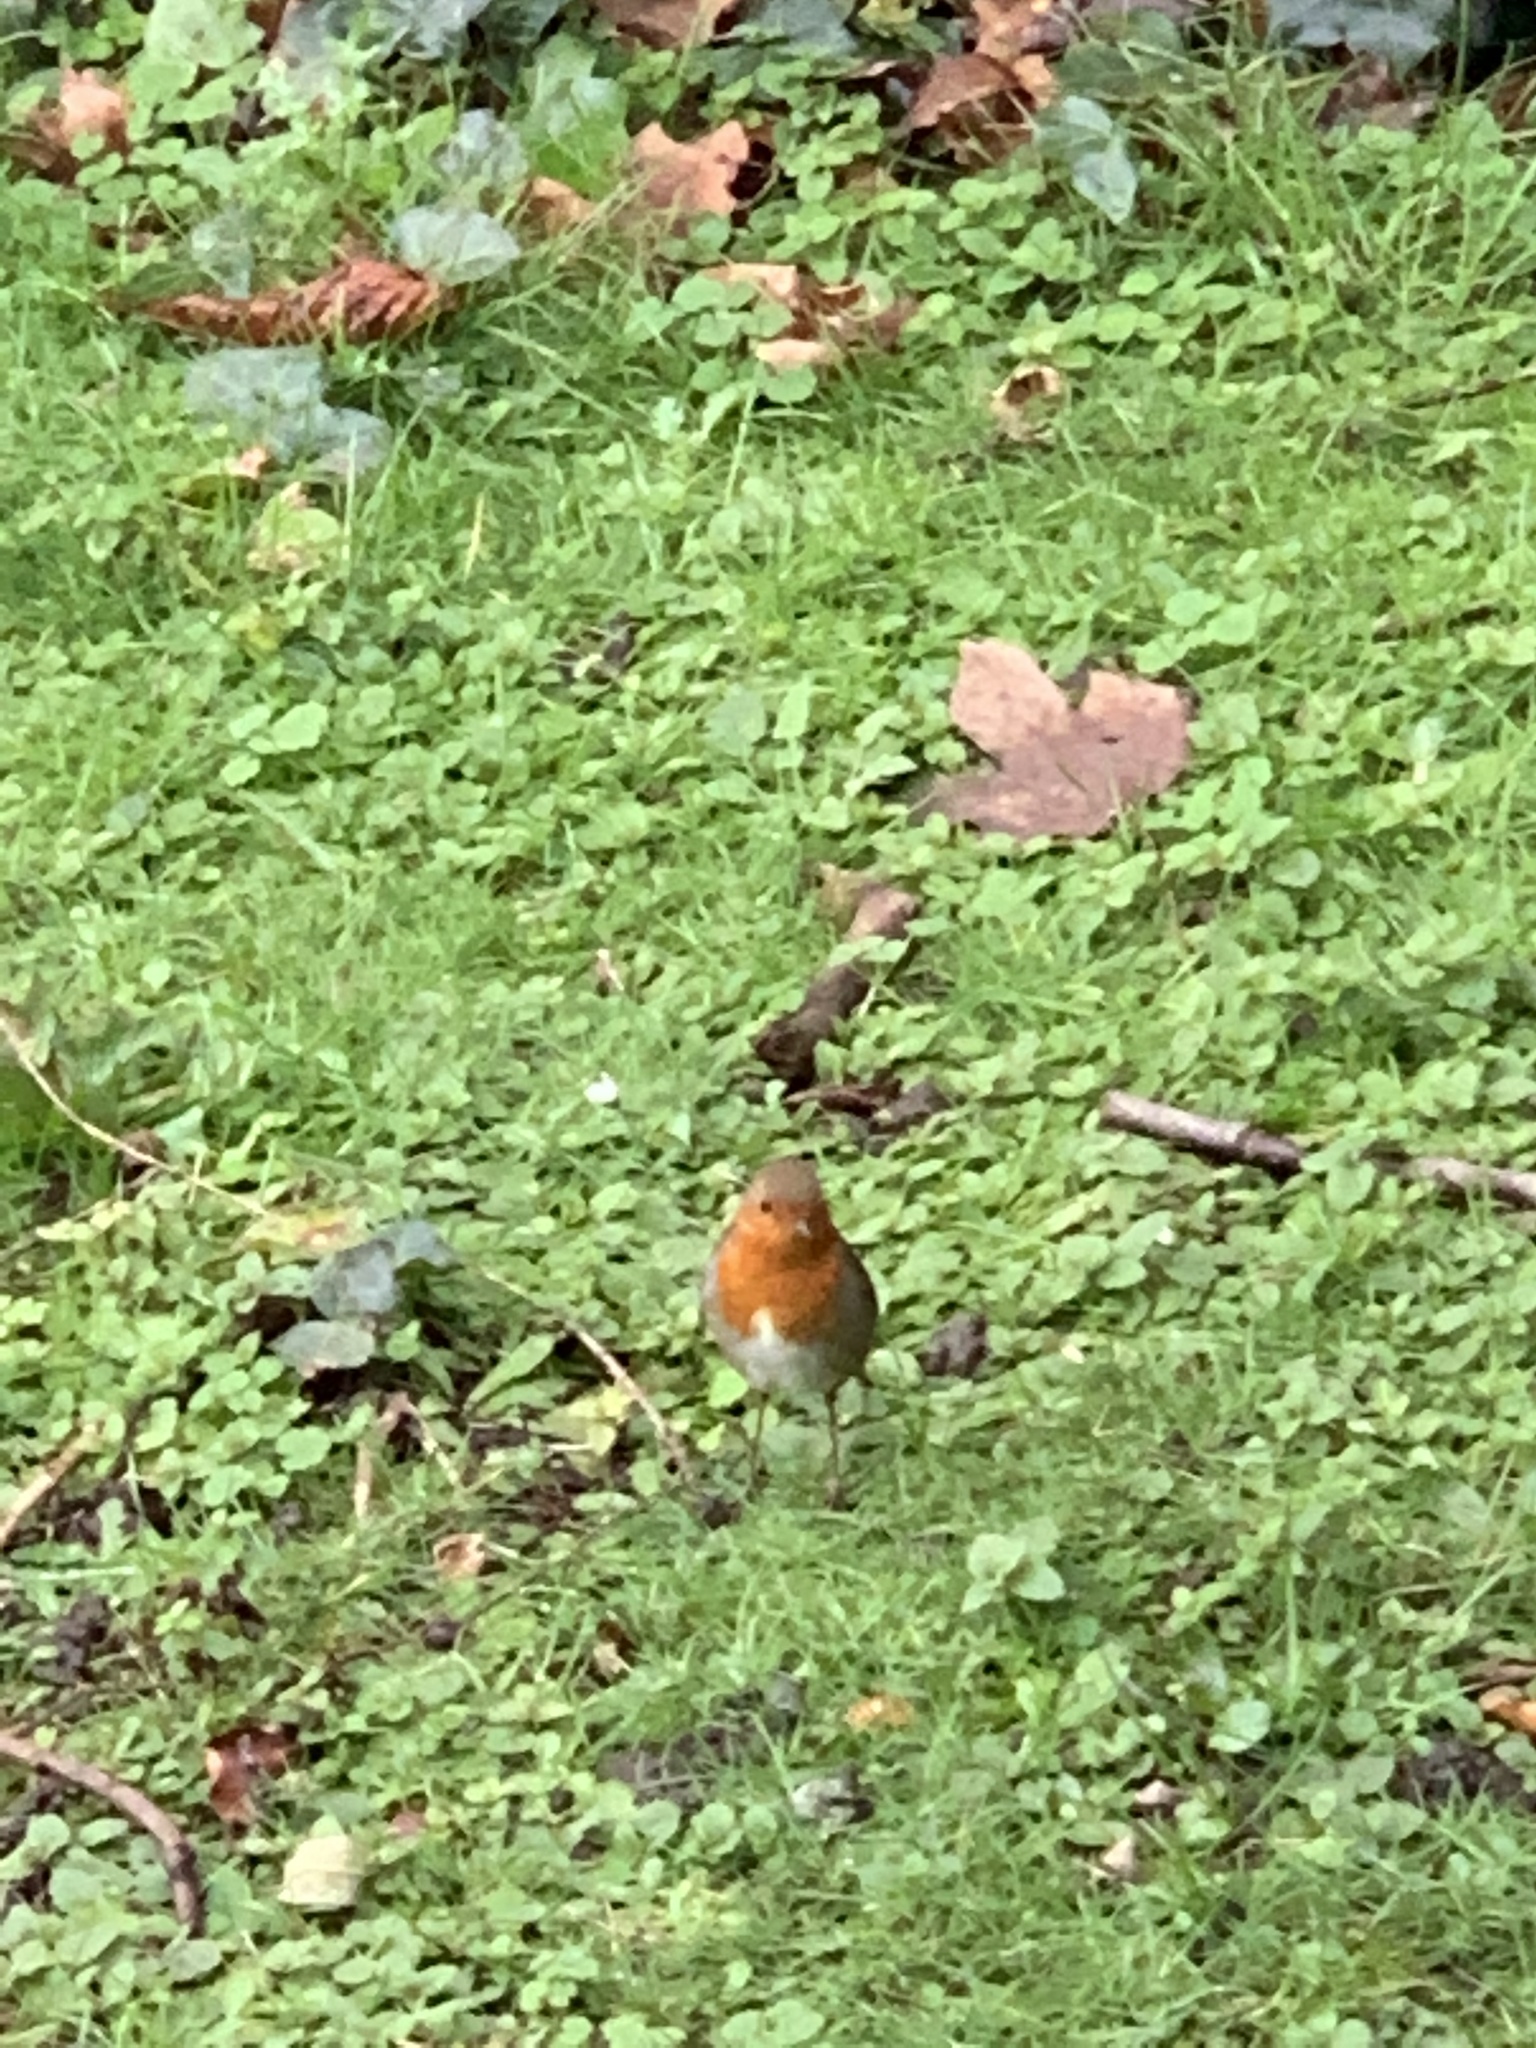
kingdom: Animalia
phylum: Chordata
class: Aves
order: Passeriformes
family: Muscicapidae
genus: Erithacus
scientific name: Erithacus rubecula
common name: European robin
